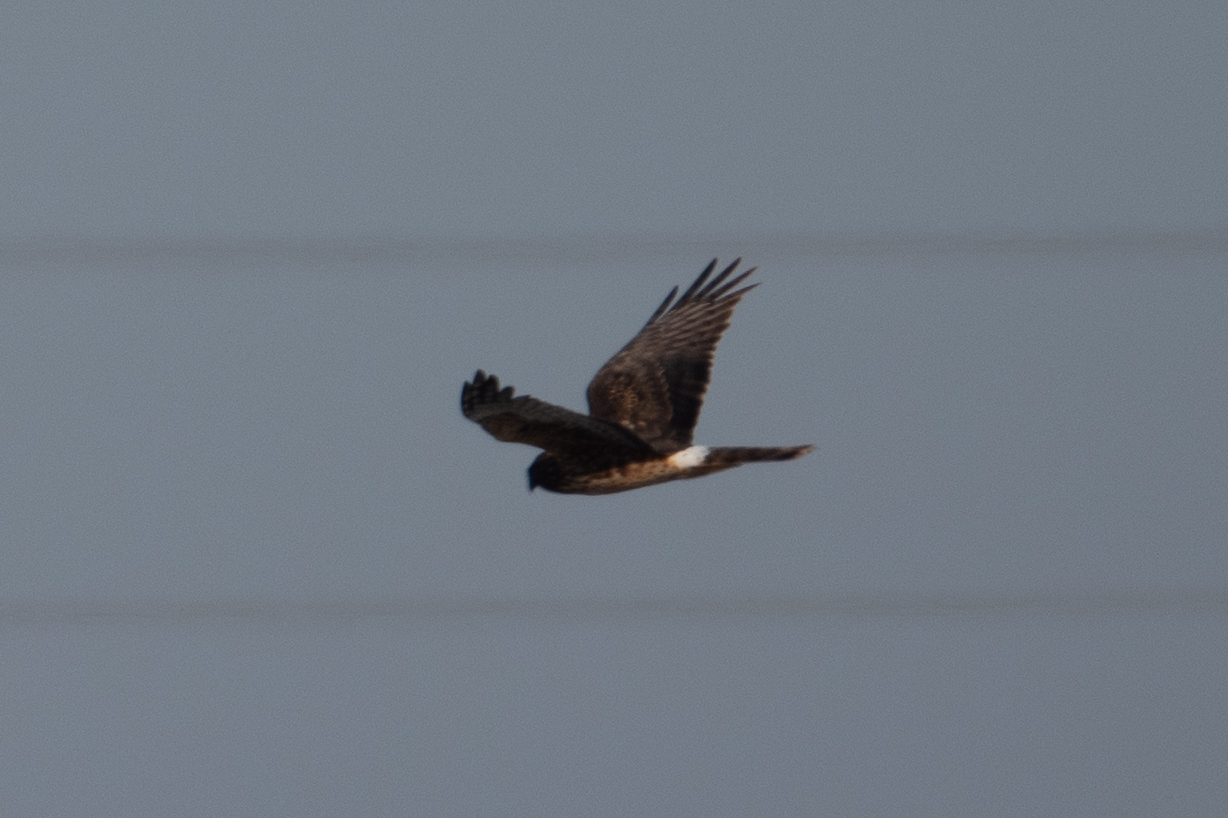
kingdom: Animalia
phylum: Chordata
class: Aves
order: Accipitriformes
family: Accipitridae
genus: Circus
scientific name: Circus cyaneus
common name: Hen harrier
